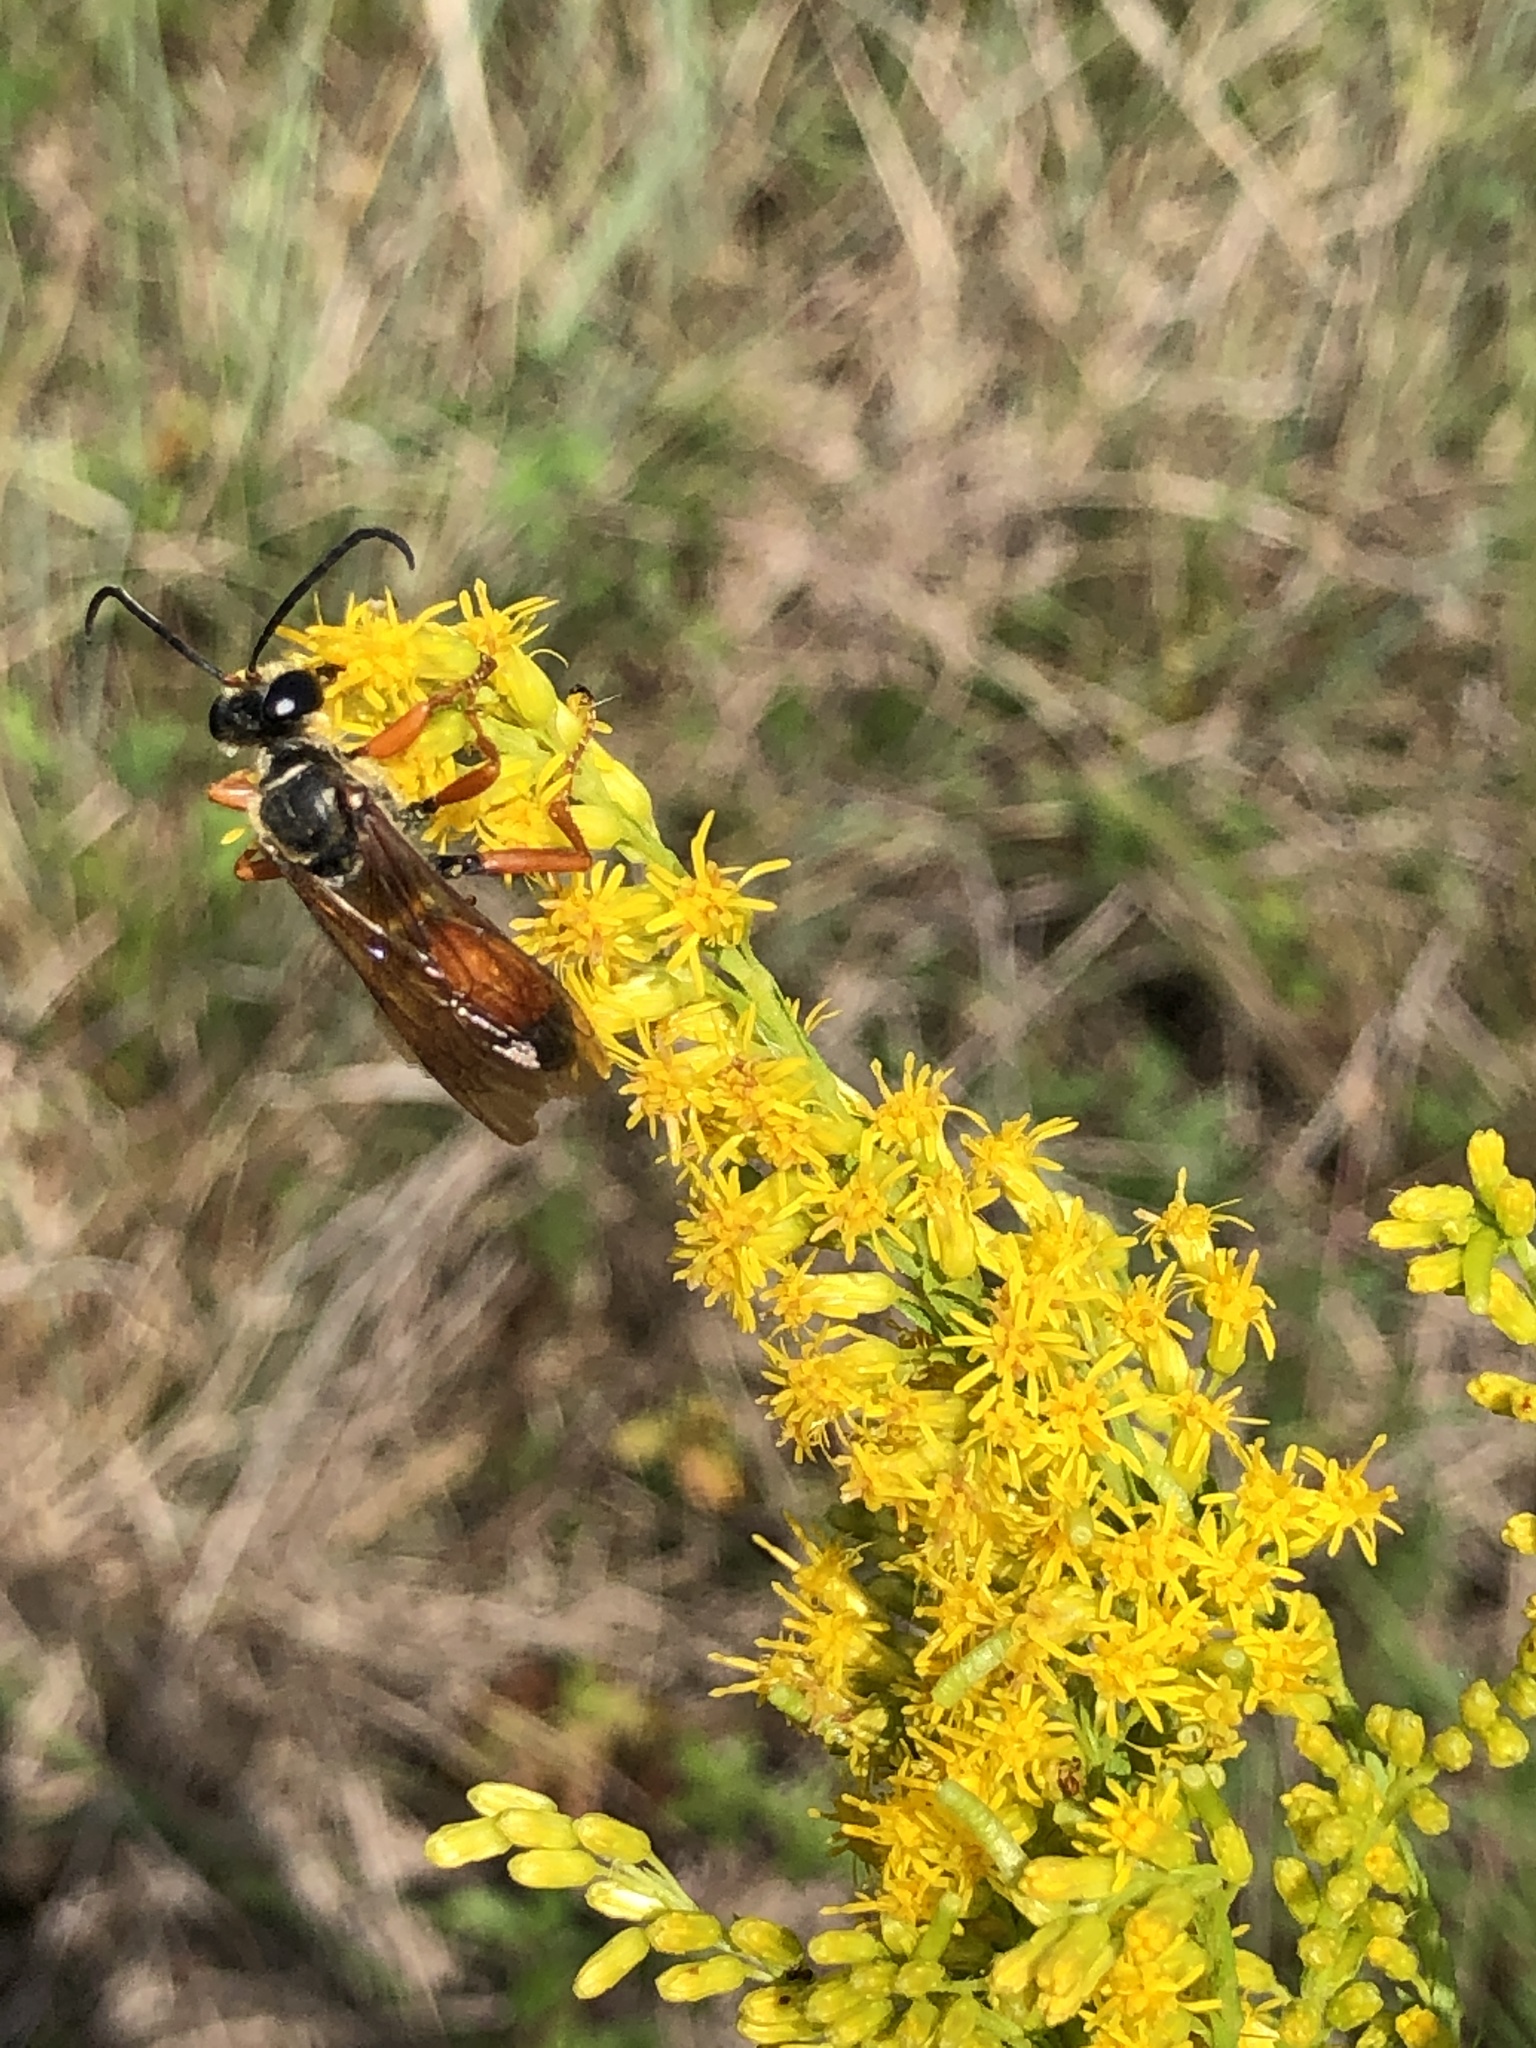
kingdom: Animalia
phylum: Arthropoda
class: Insecta
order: Hymenoptera
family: Sphecidae
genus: Sphex
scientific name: Sphex ichneumoneus
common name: Great golden digger wasp
